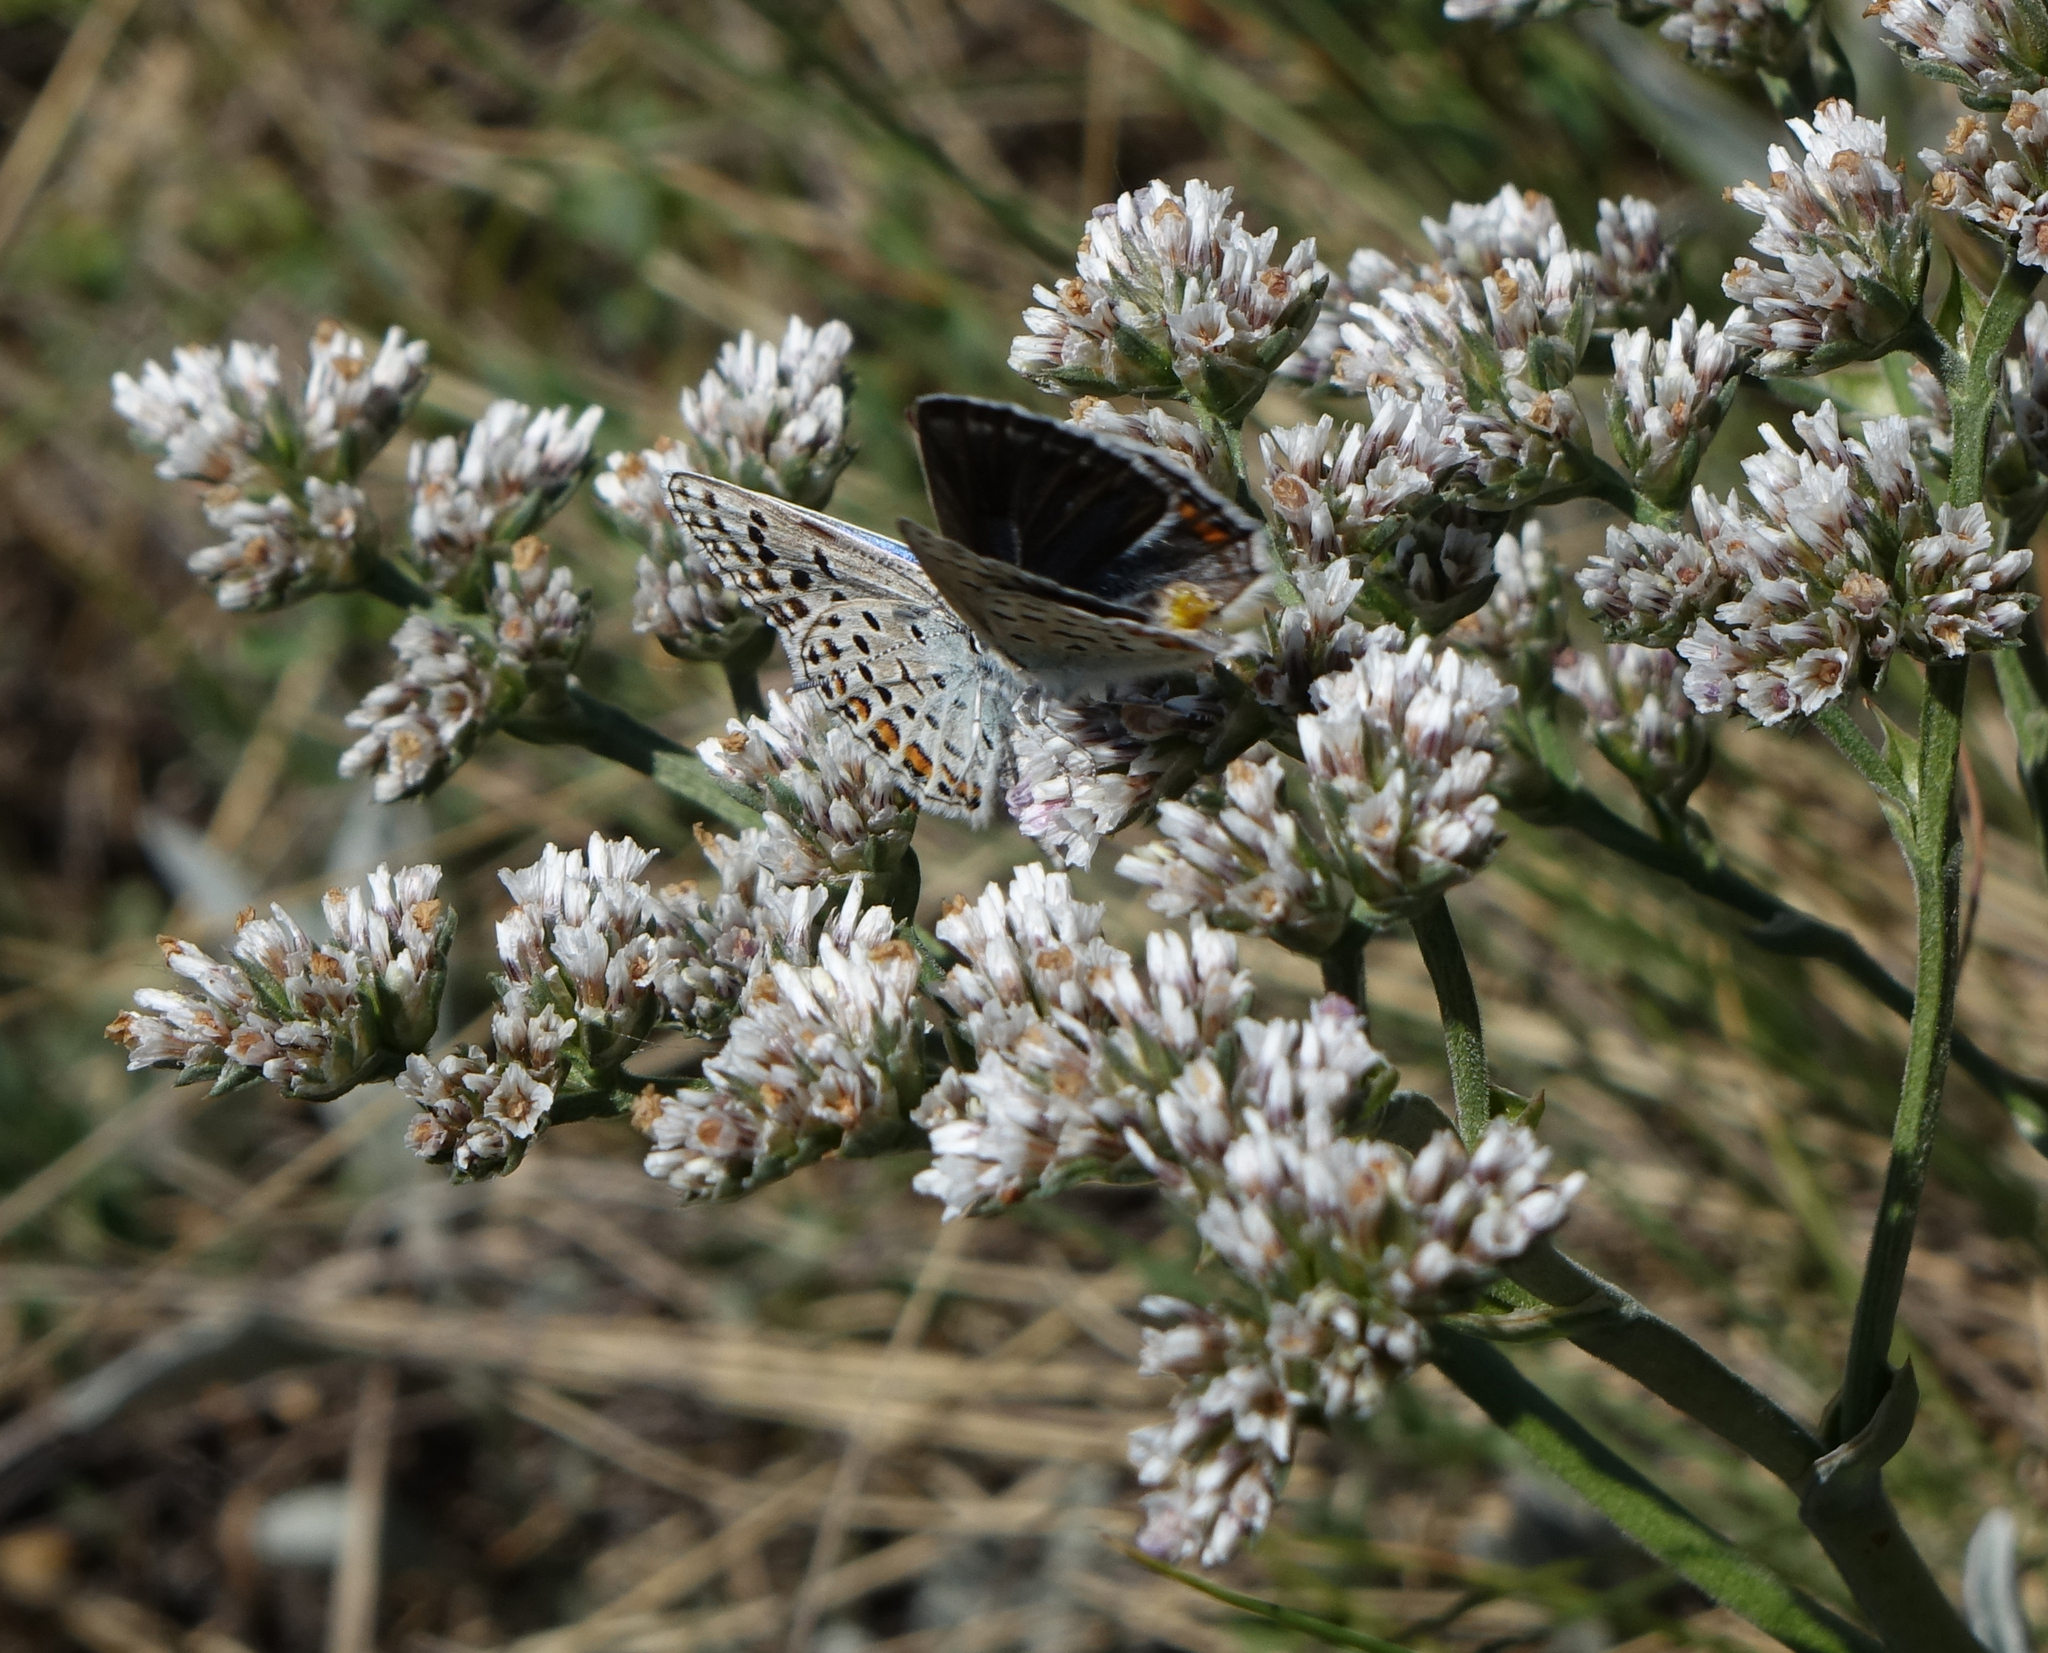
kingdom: Plantae
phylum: Tracheophyta
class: Magnoliopsida
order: Caryophyllales
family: Plumbaginaceae
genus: Goniolimon
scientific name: Goniolimon speciosum
